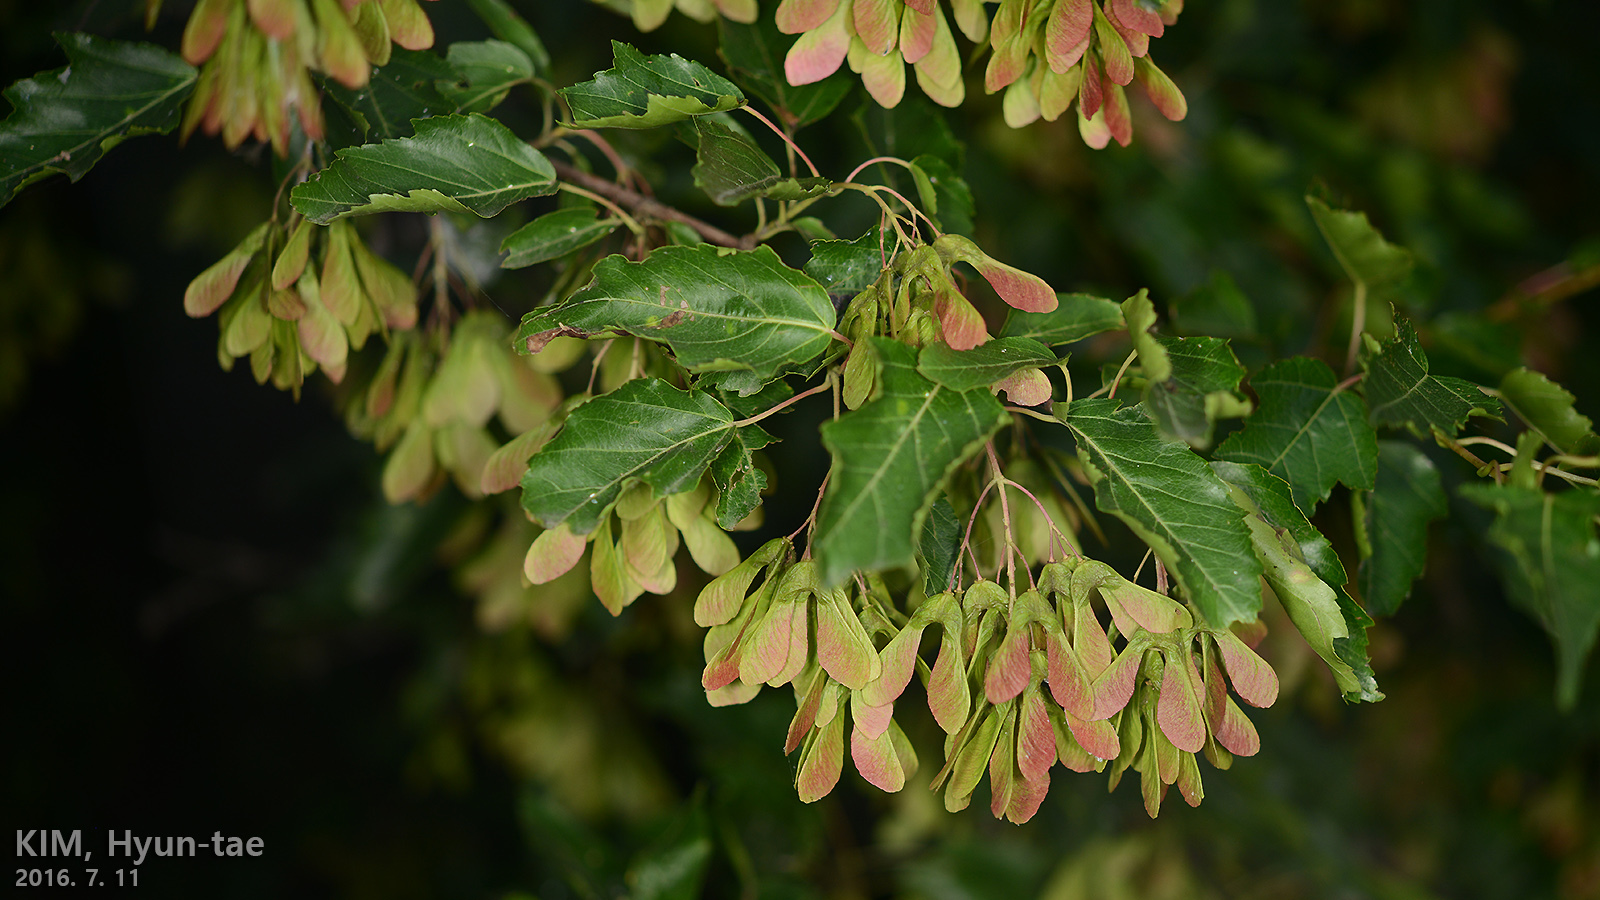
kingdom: Plantae
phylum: Tracheophyta
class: Magnoliopsida
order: Sapindales
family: Sapindaceae
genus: Acer
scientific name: Acer tataricum
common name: Tartar maple
